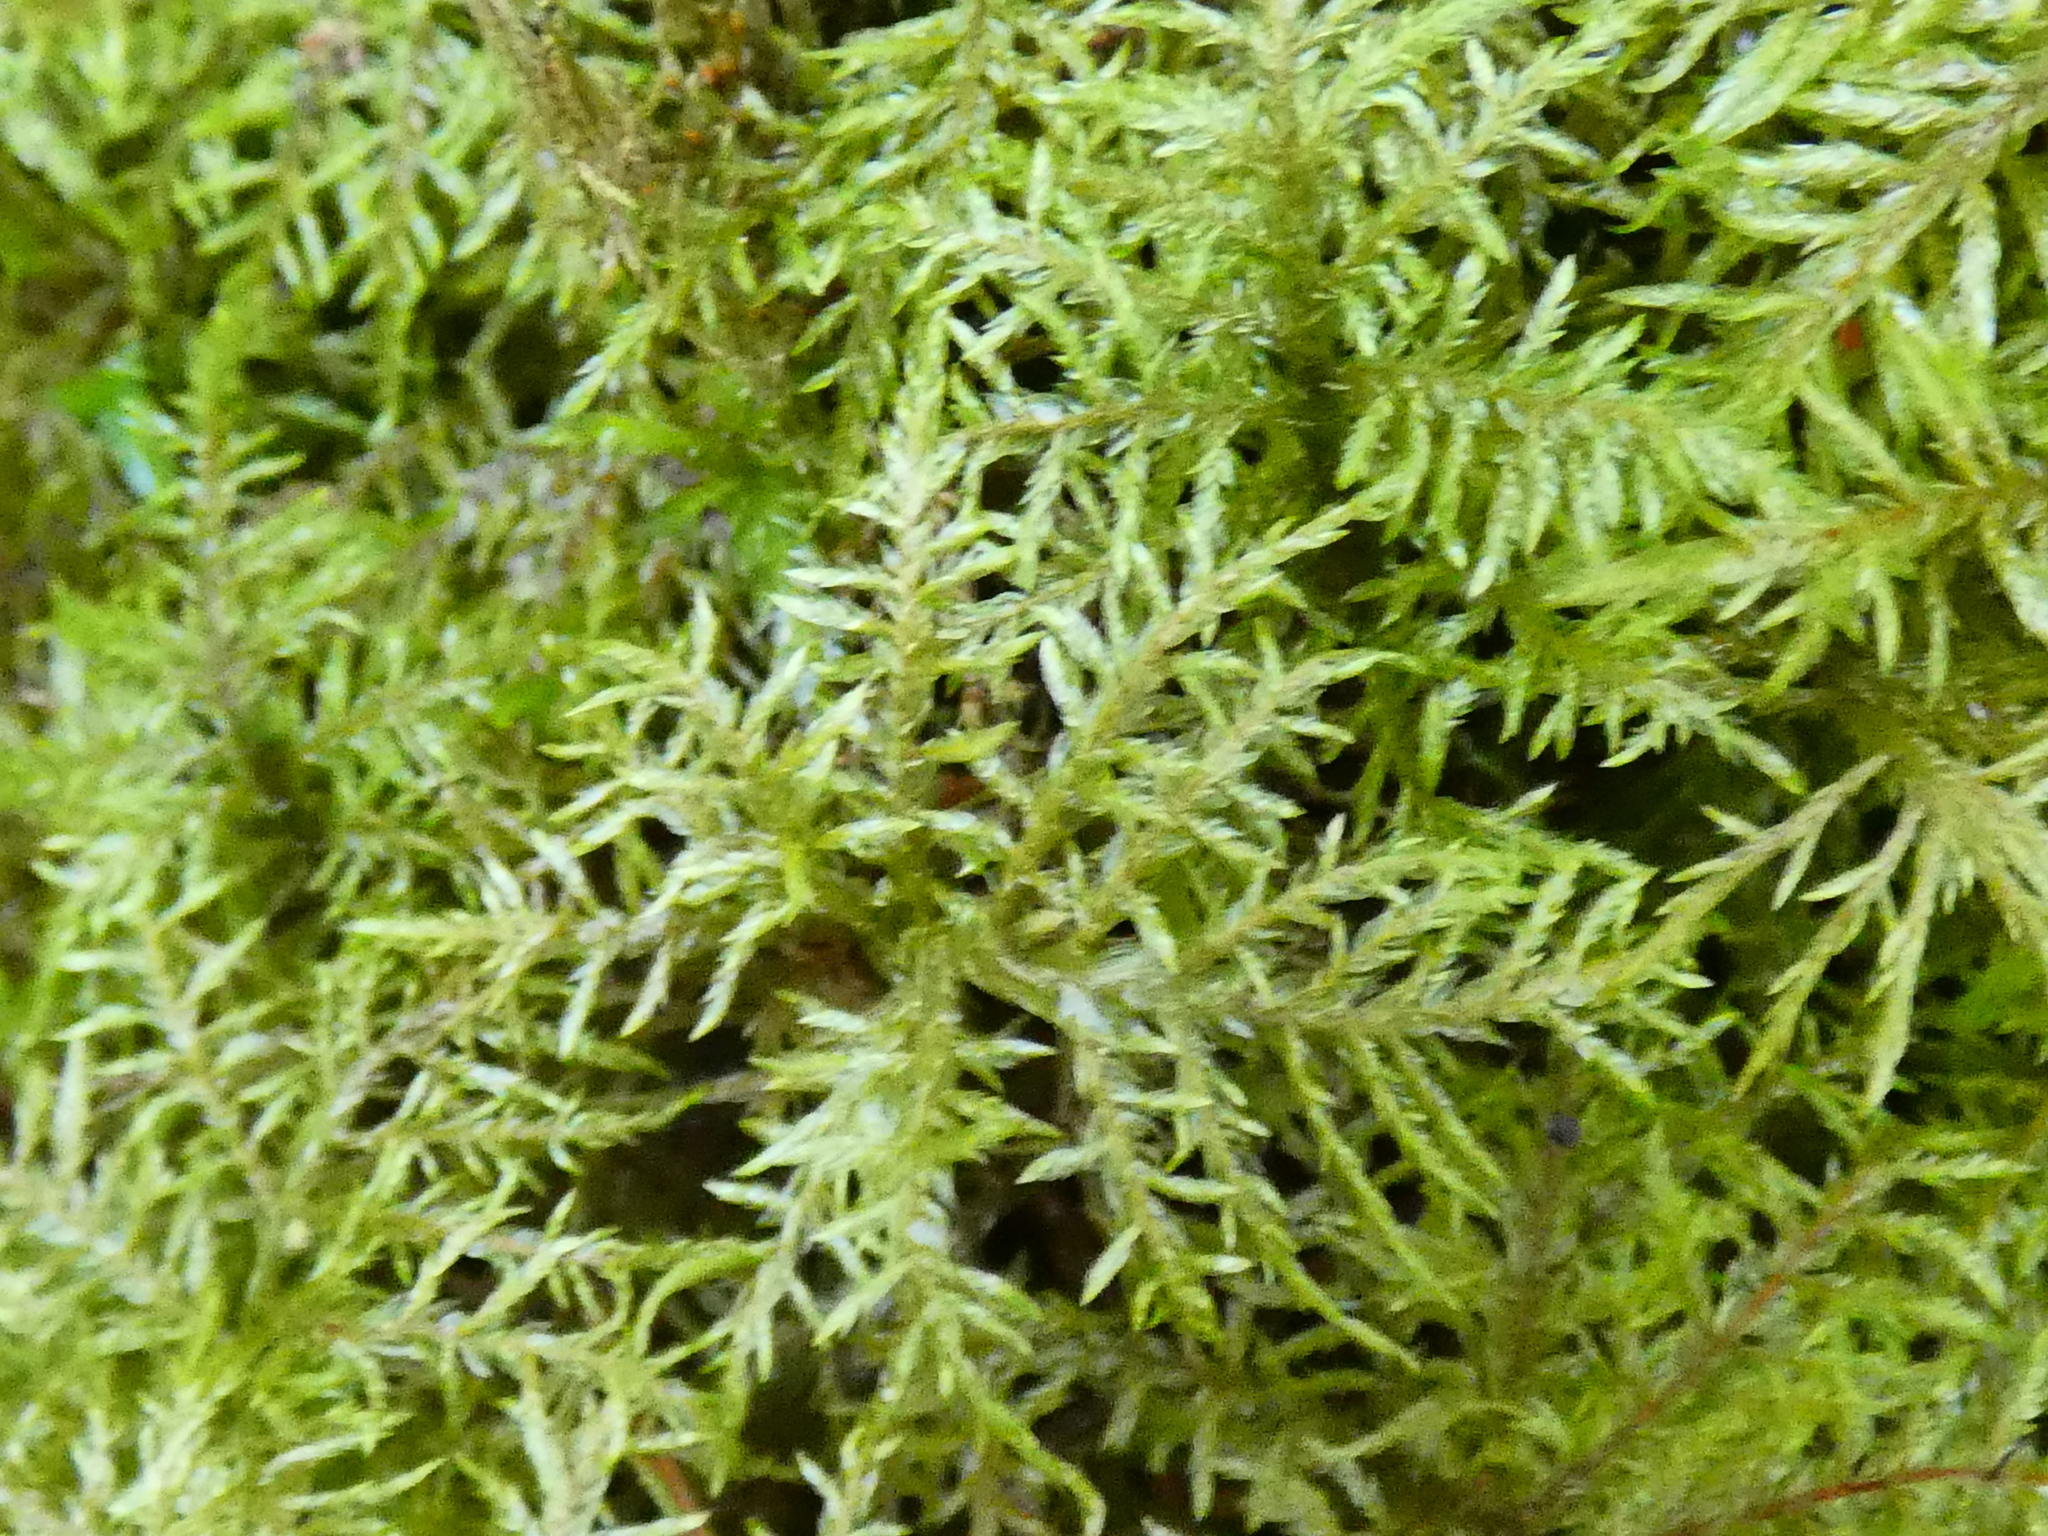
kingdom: Plantae
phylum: Bryophyta
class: Bryopsida
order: Hypnales
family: Hylocomiaceae
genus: Hylocomium
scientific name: Hylocomium splendens
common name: Stairstep moss
